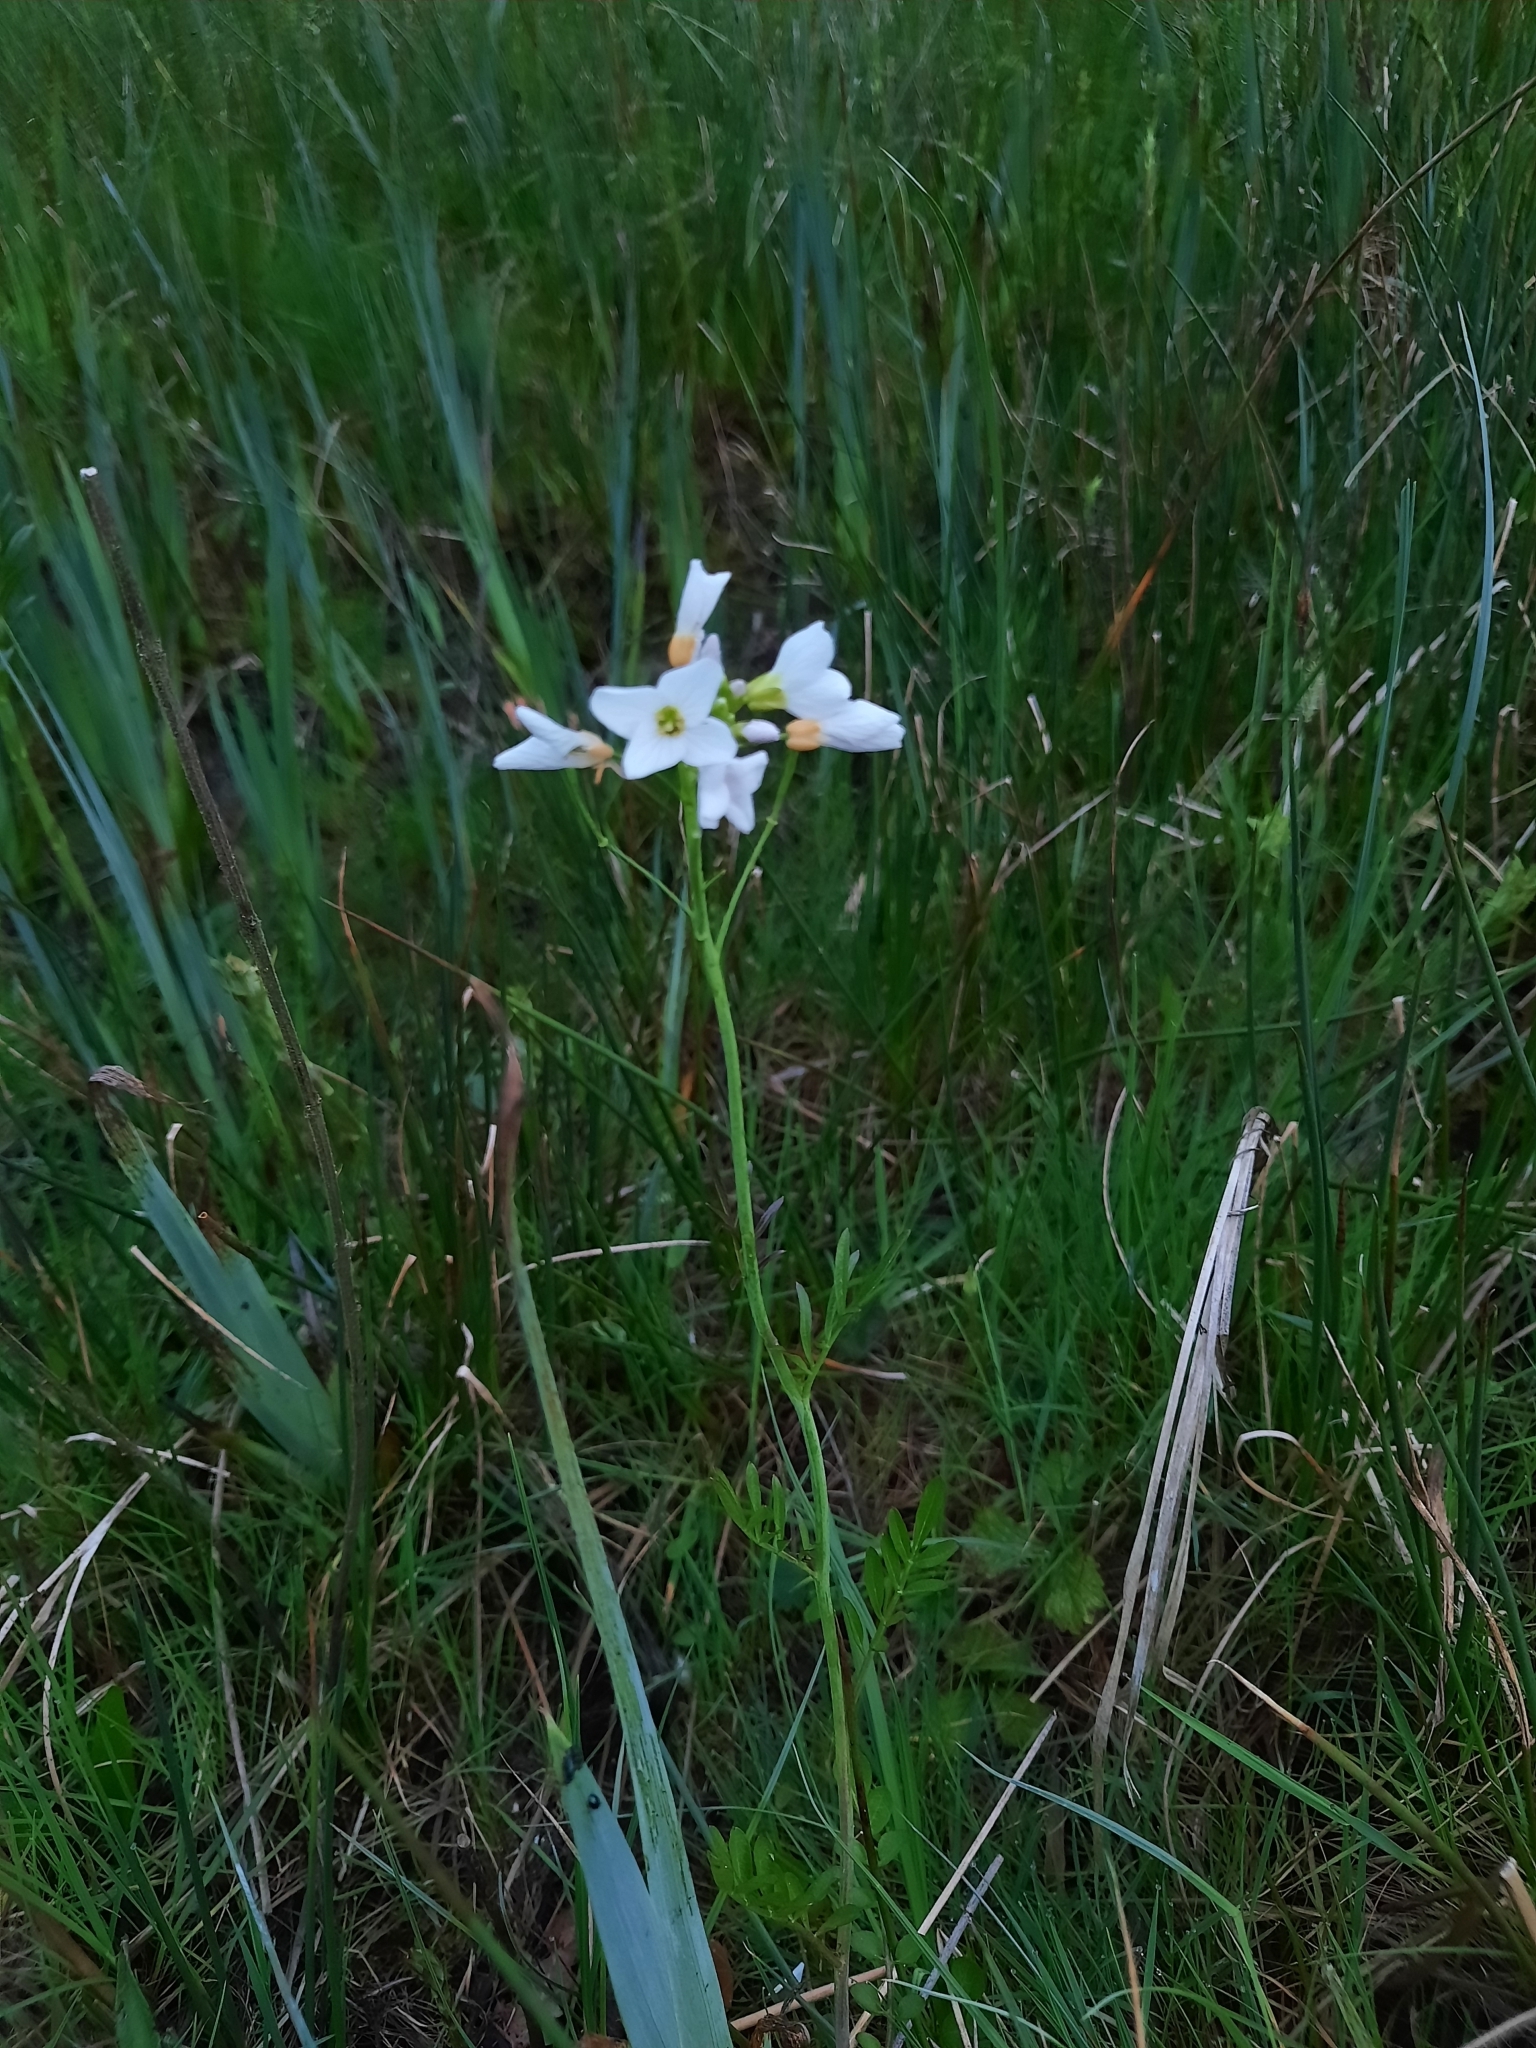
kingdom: Plantae
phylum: Tracheophyta
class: Magnoliopsida
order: Brassicales
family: Brassicaceae
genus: Cardamine
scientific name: Cardamine pratensis
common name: Cuckoo flower
